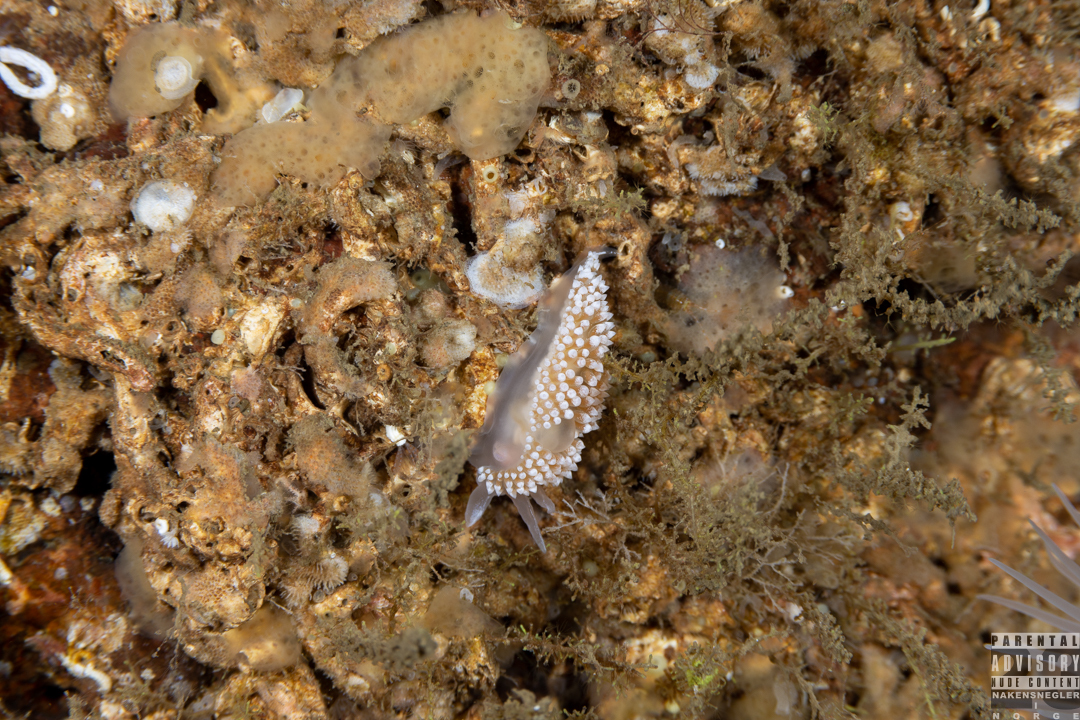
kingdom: Animalia
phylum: Mollusca
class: Gastropoda
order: Nudibranchia
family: Coryphellidae
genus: Coryphella
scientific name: Coryphella verrucosa
